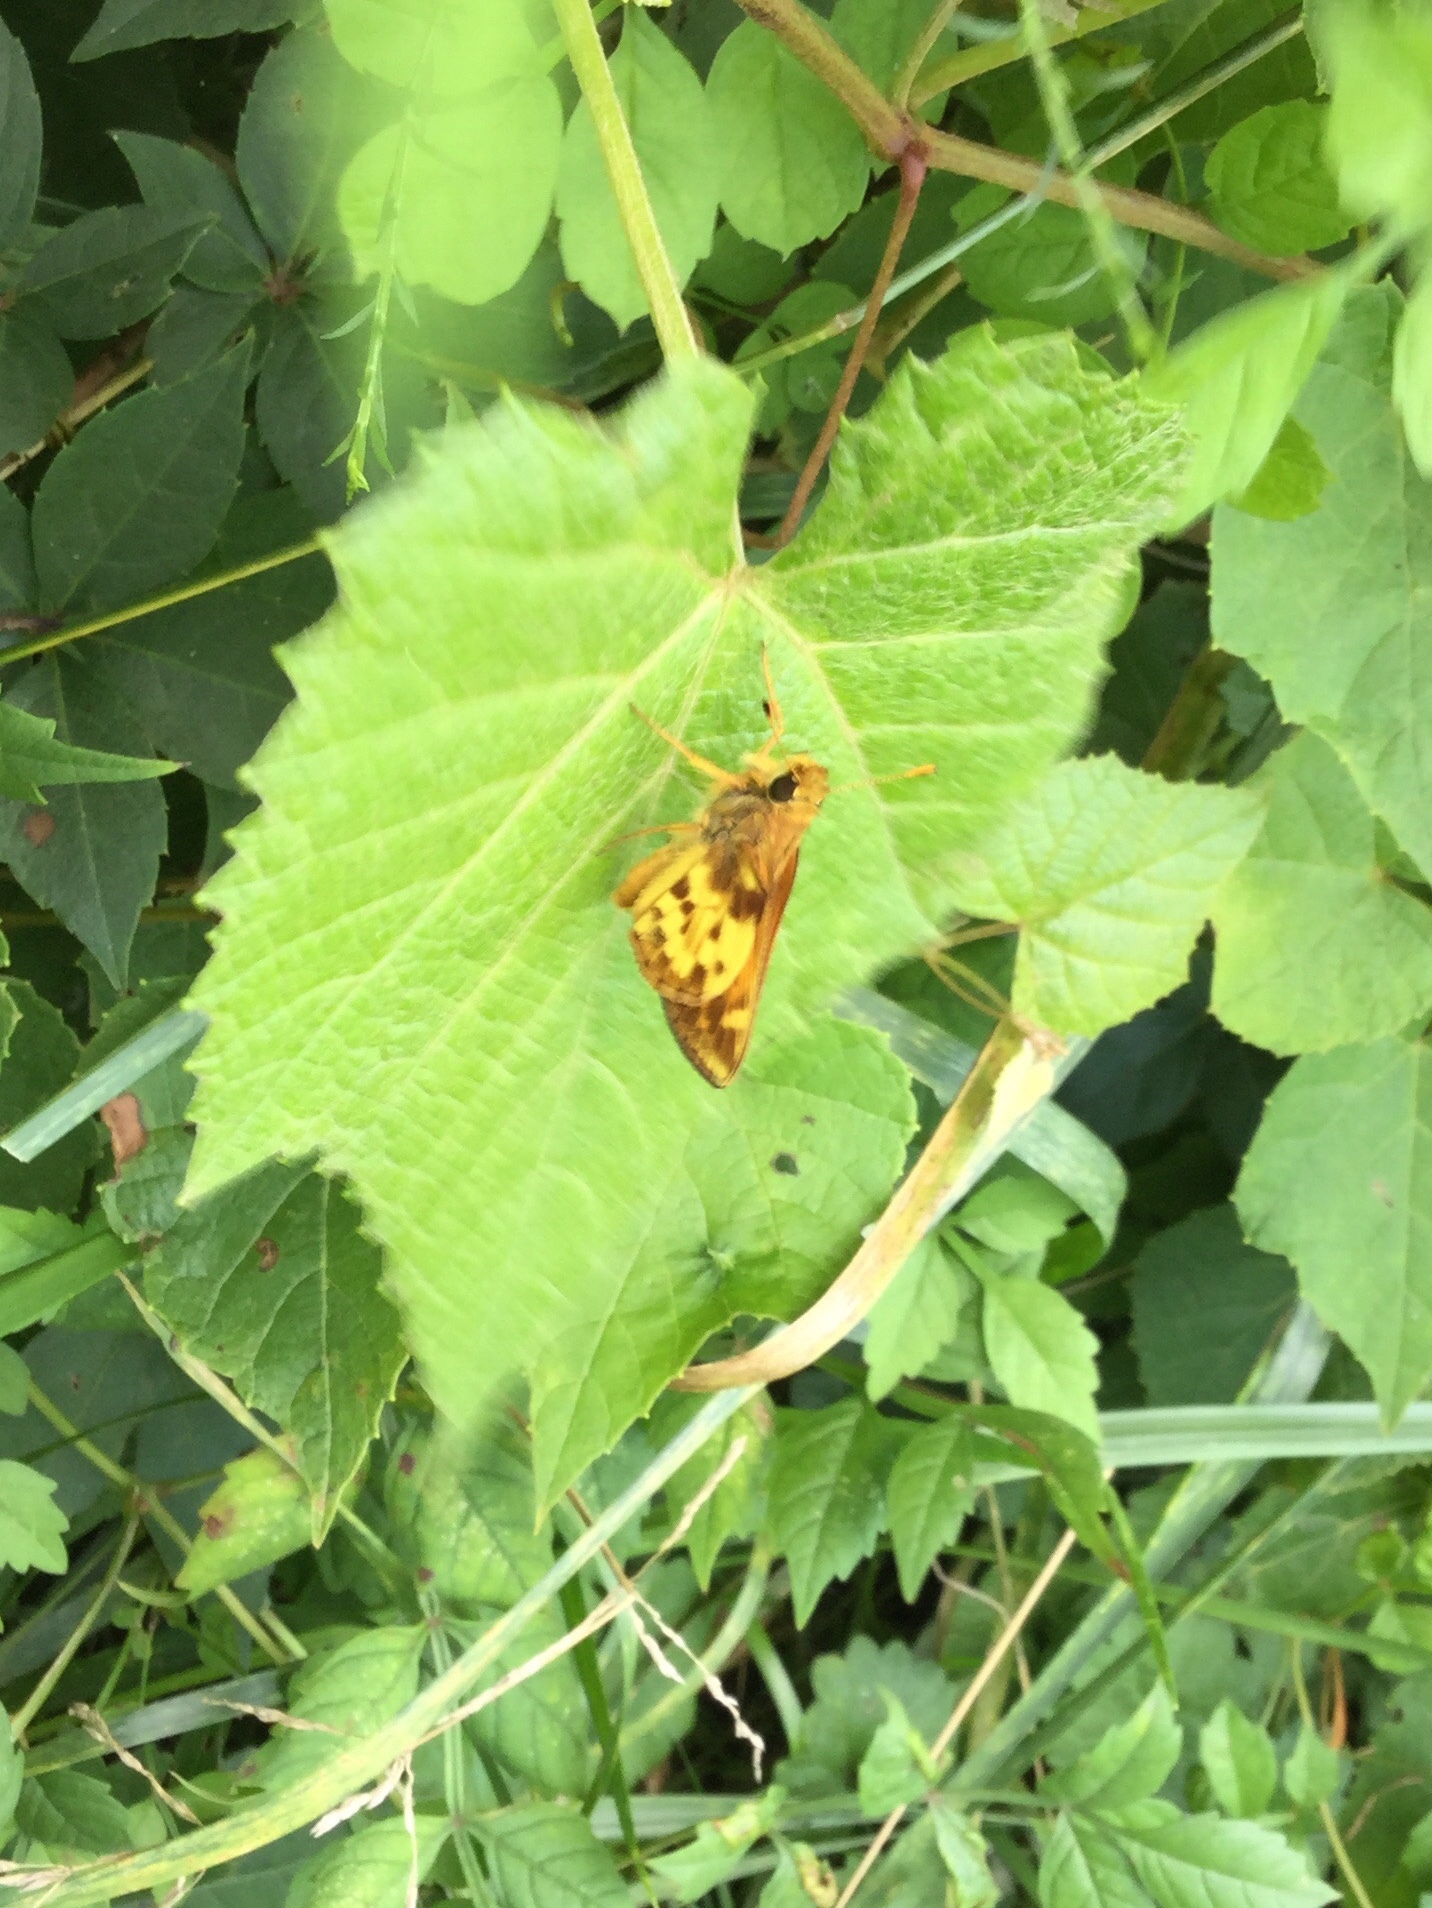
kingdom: Animalia
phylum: Arthropoda
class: Insecta
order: Lepidoptera
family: Hesperiidae
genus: Lon
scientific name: Lon zabulon
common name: Zabulon skipper
